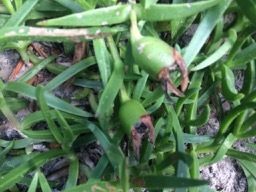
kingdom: Plantae
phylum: Tracheophyta
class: Magnoliopsida
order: Caryophyllales
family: Aizoaceae
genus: Carpobrotus
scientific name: Carpobrotus deliciosus
